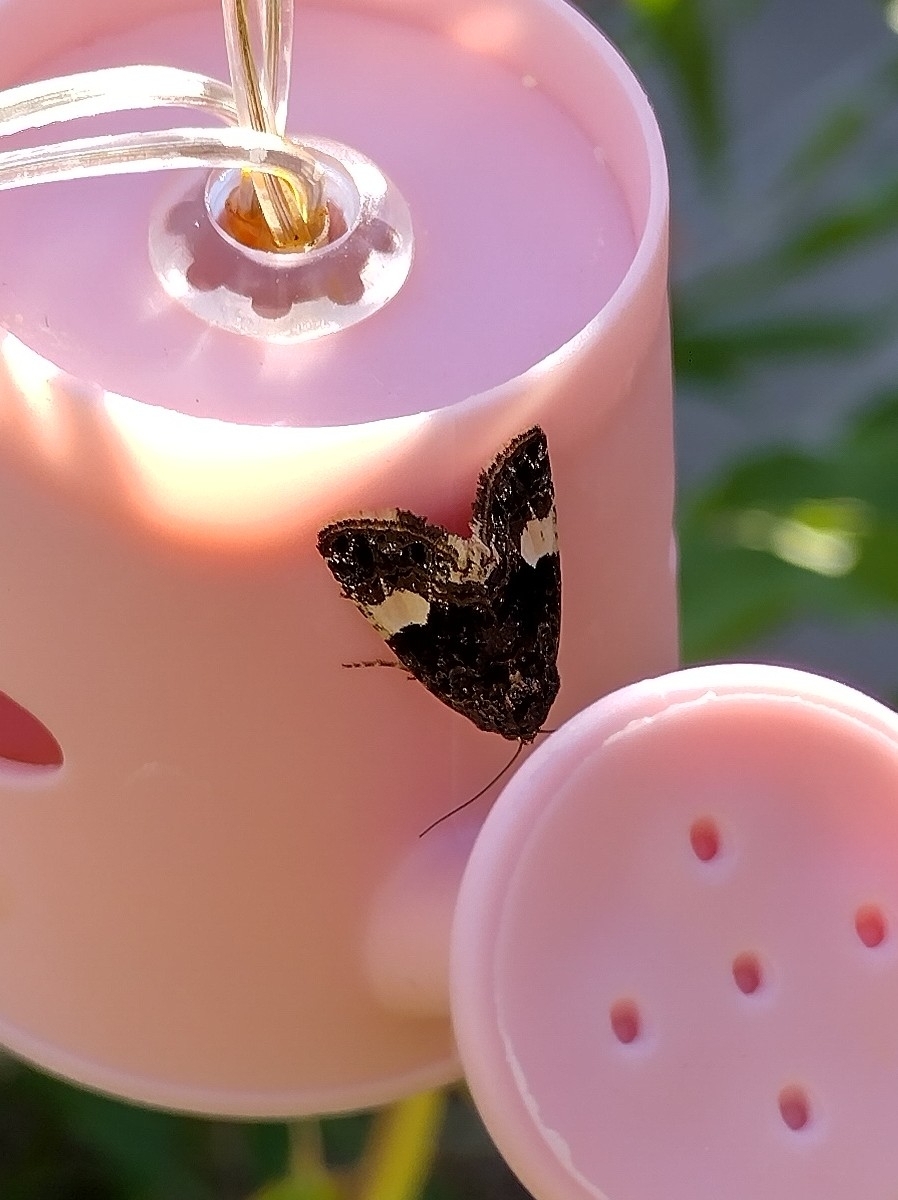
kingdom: Animalia
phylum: Arthropoda
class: Insecta
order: Lepidoptera
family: Erebidae
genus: Tyta
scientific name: Tyta luctuosa
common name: Four-spotted
